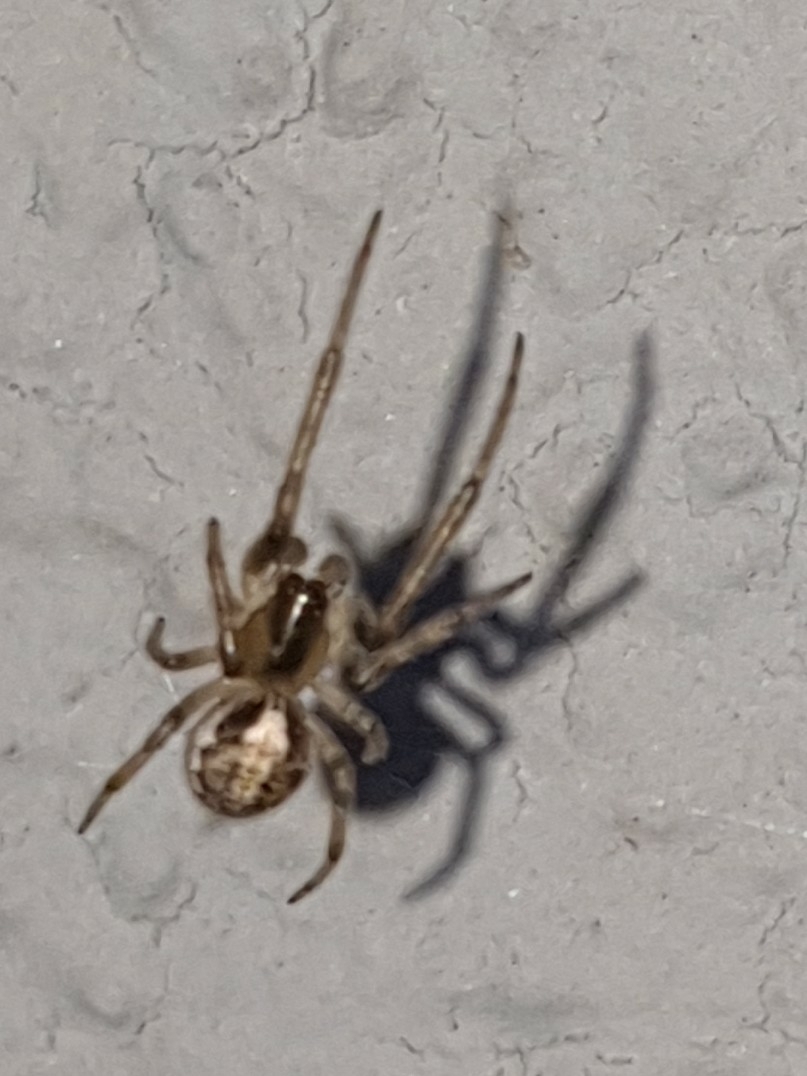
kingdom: Animalia
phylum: Arthropoda
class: Arachnida
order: Araneae
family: Araneidae
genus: Zygiella
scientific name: Zygiella x-notata
